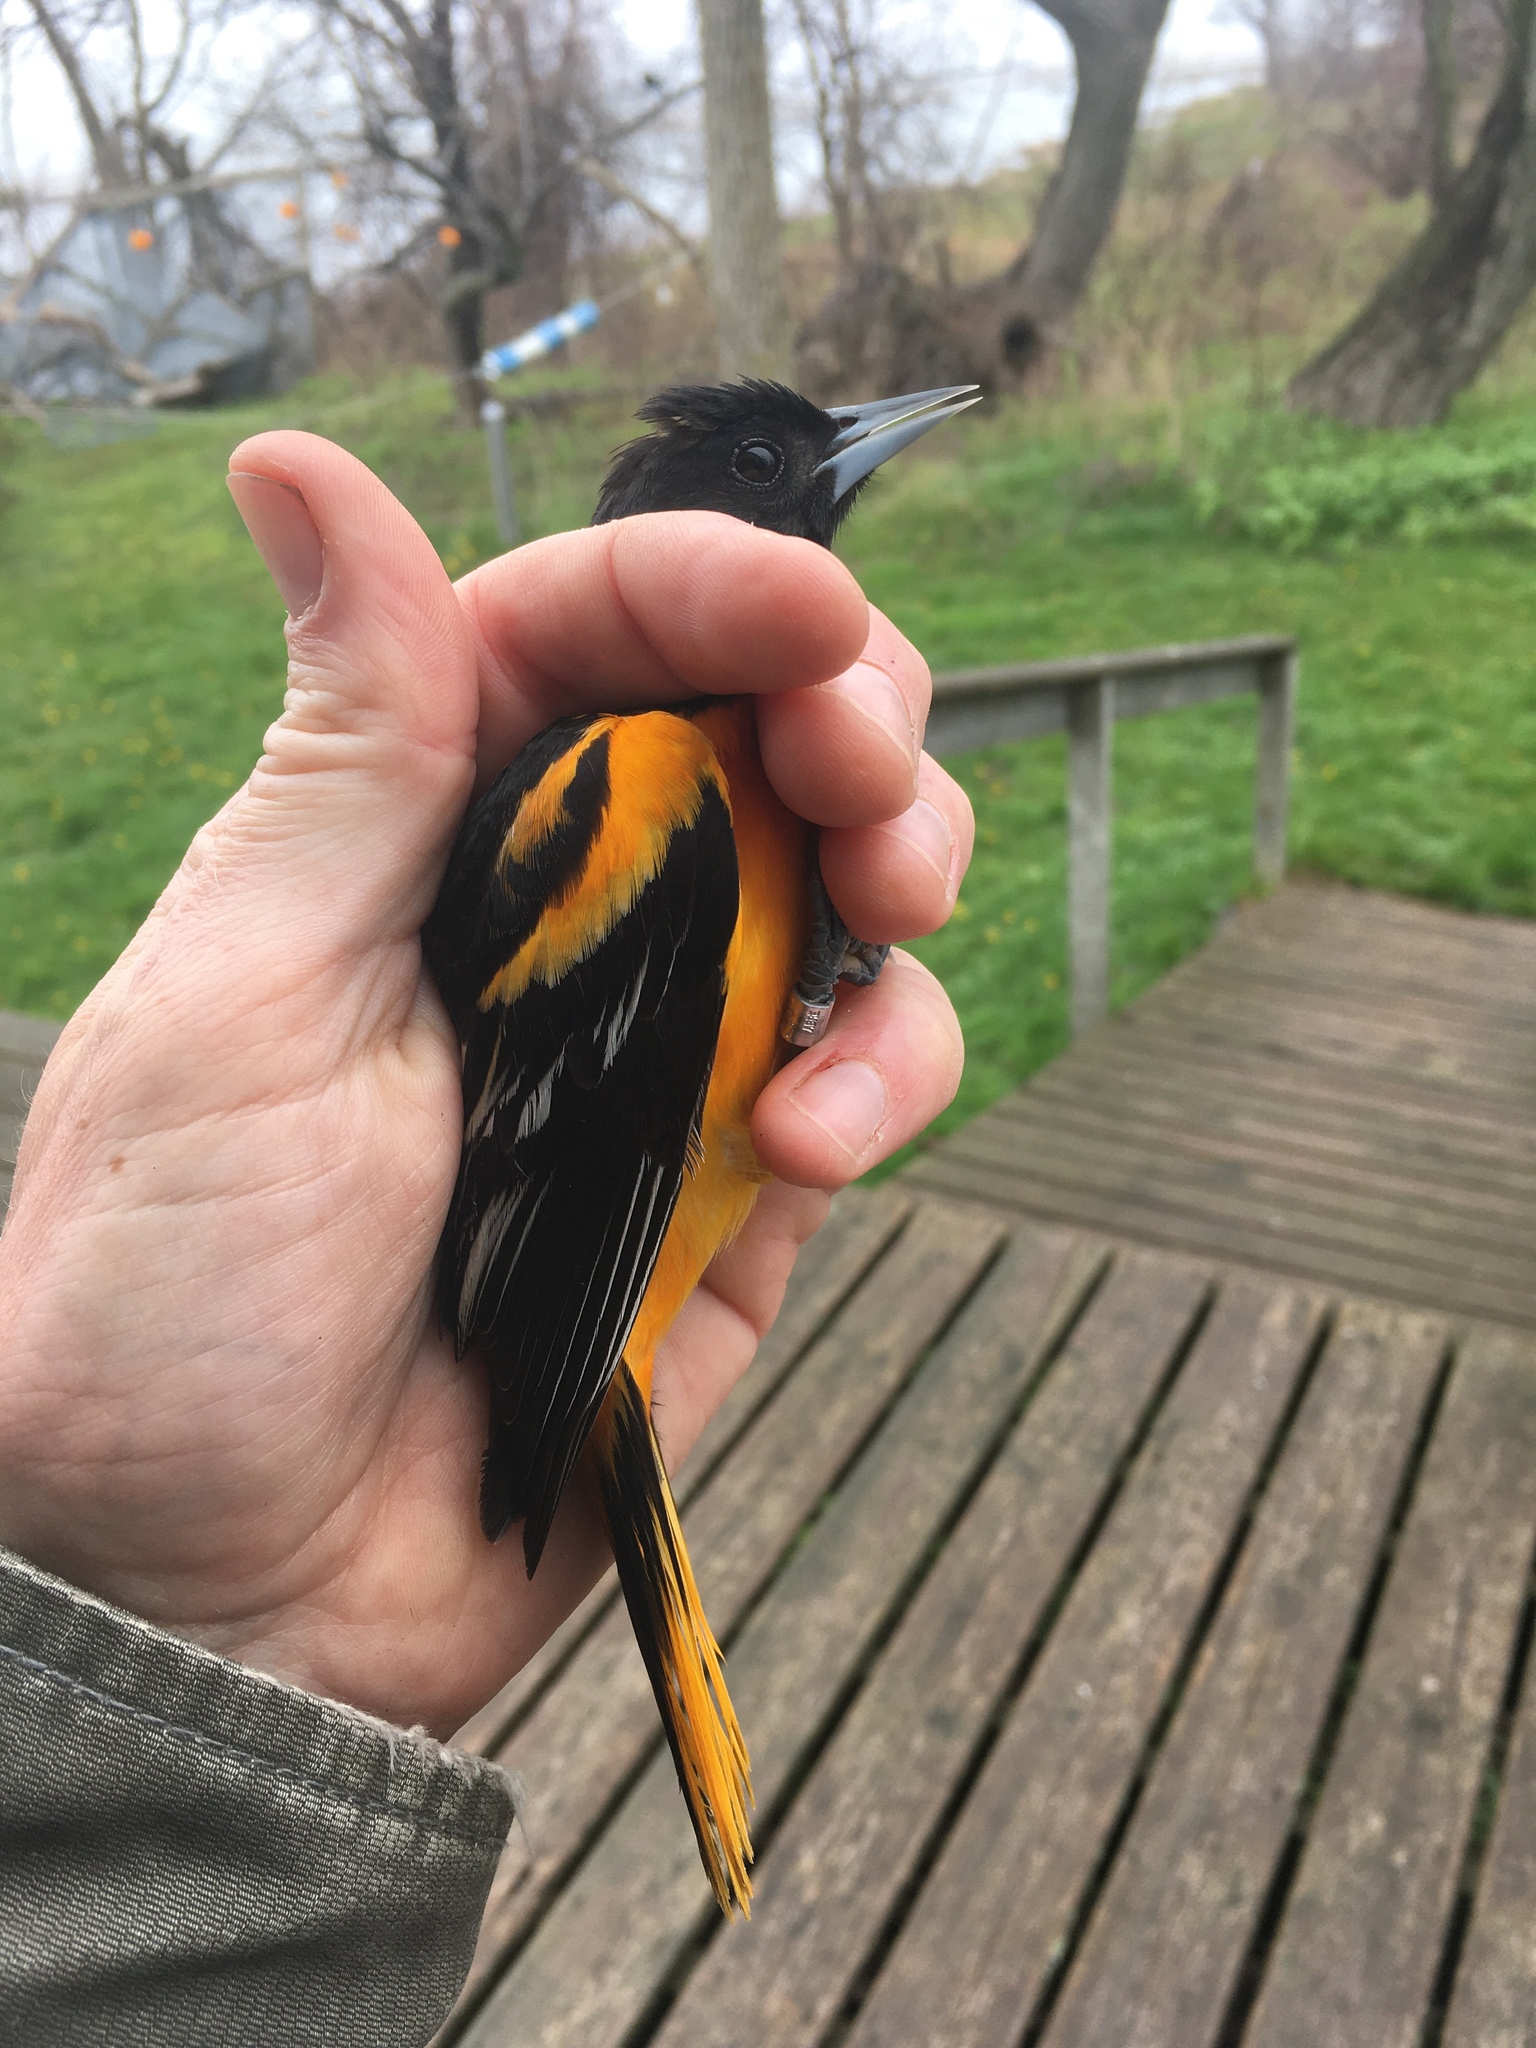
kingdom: Animalia
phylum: Chordata
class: Aves
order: Passeriformes
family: Icteridae
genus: Icterus
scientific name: Icterus galbula
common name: Baltimore oriole
